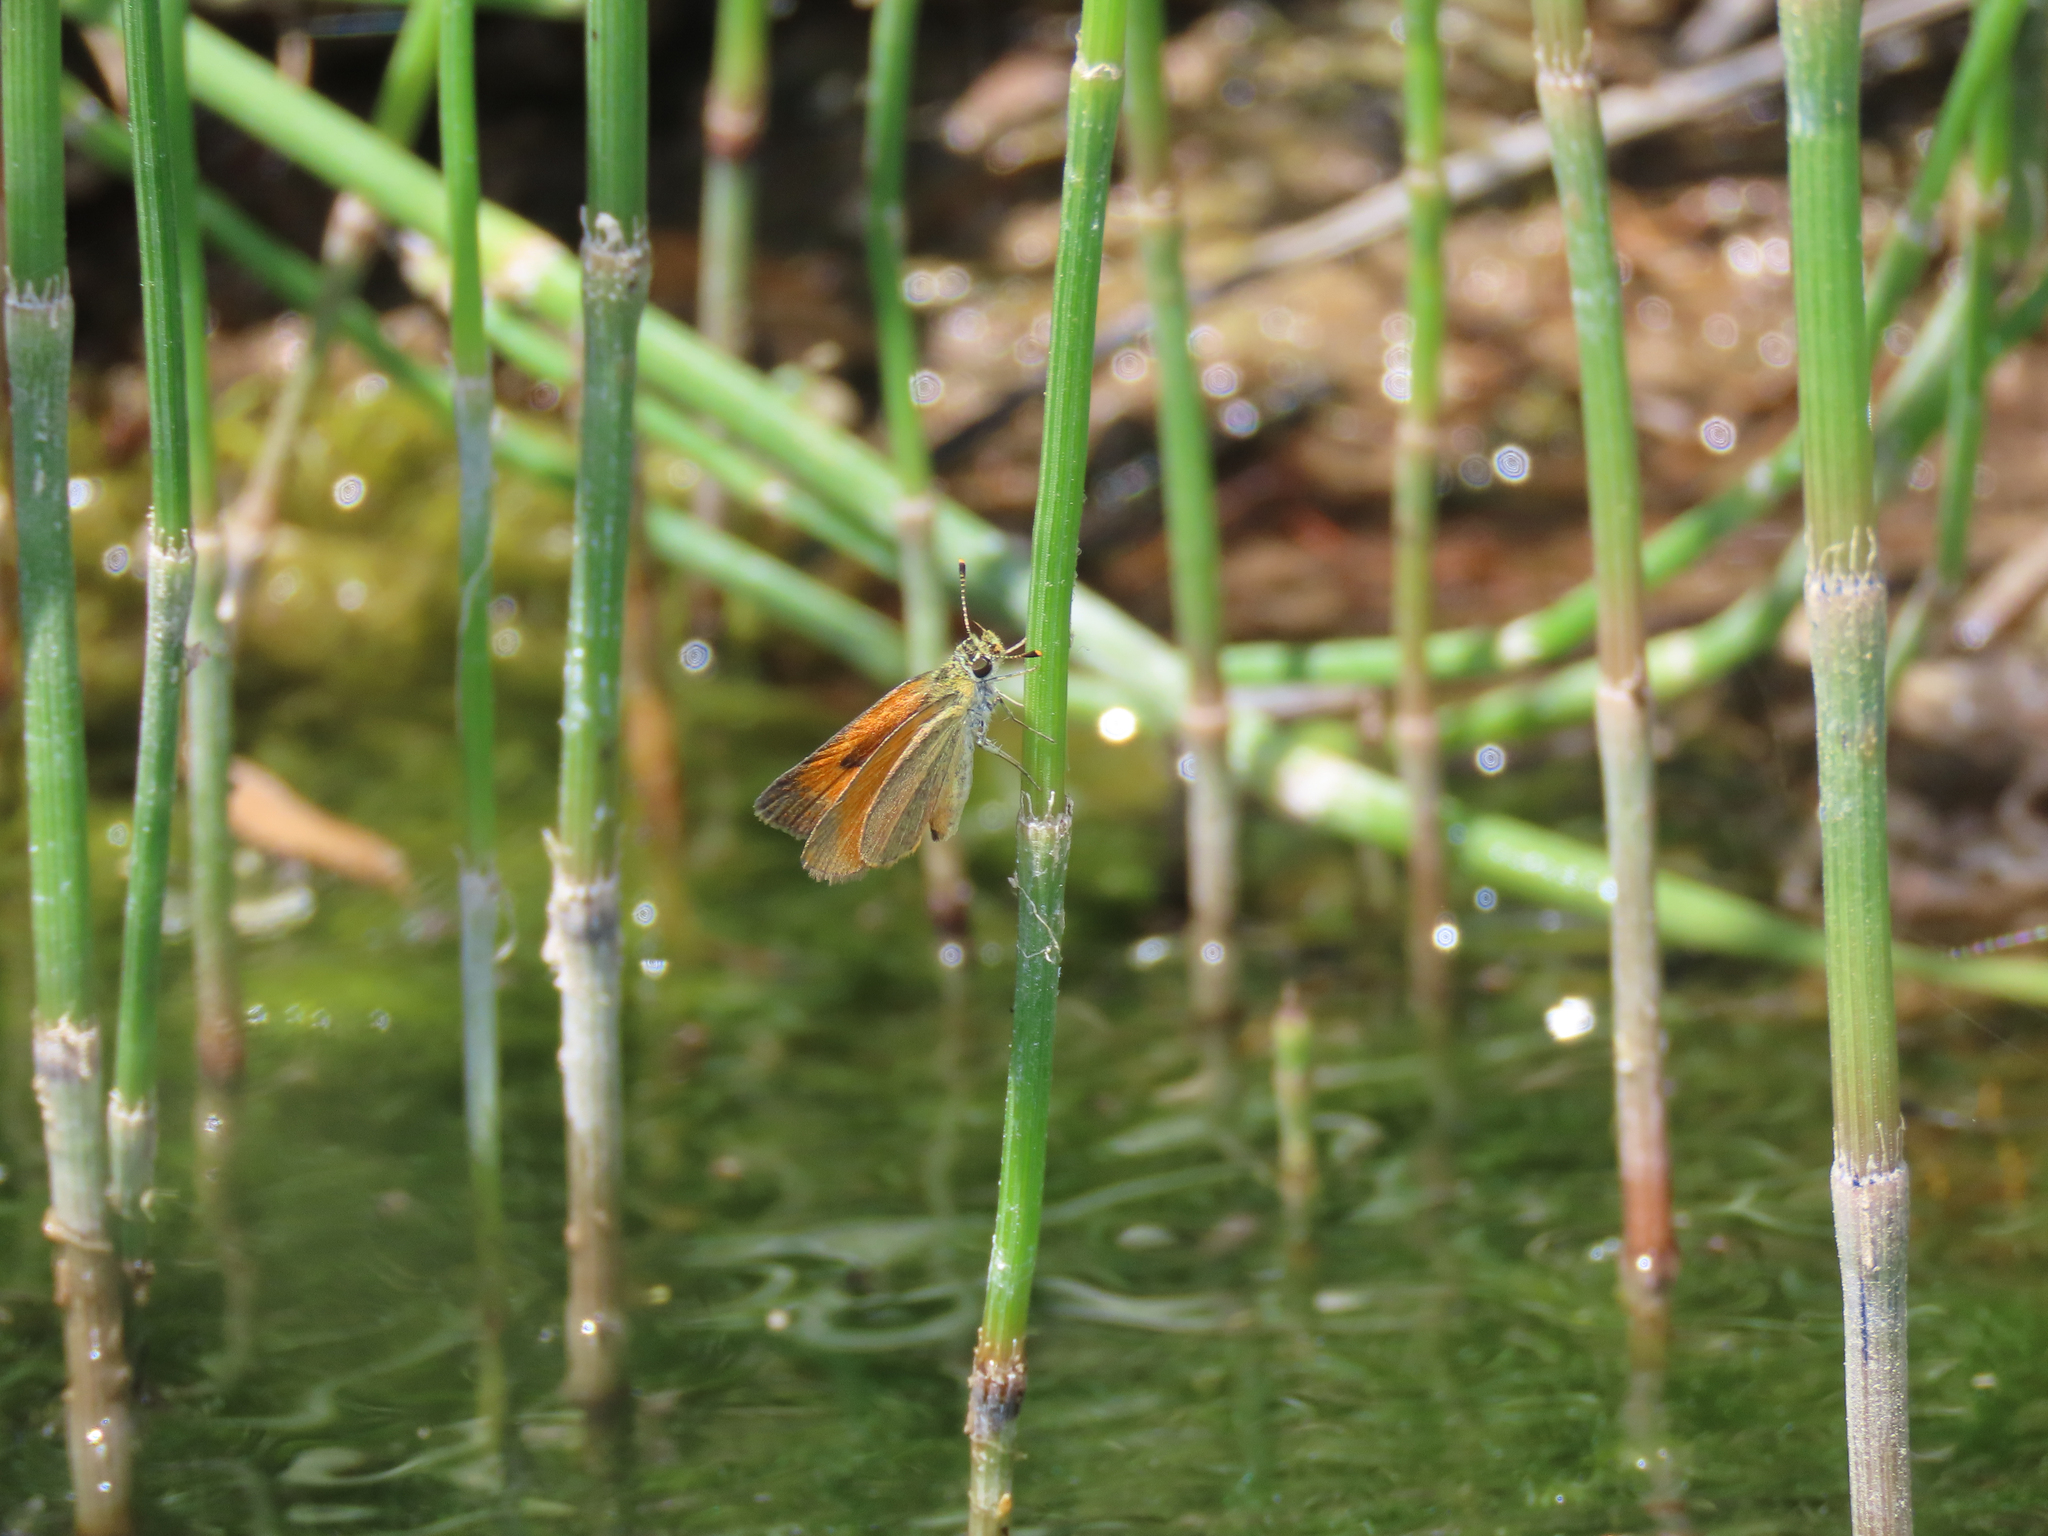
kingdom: Animalia
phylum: Arthropoda
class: Insecta
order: Lepidoptera
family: Hesperiidae
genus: Ancyloxypha
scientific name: Ancyloxypha arene
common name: Tropical least skipper
